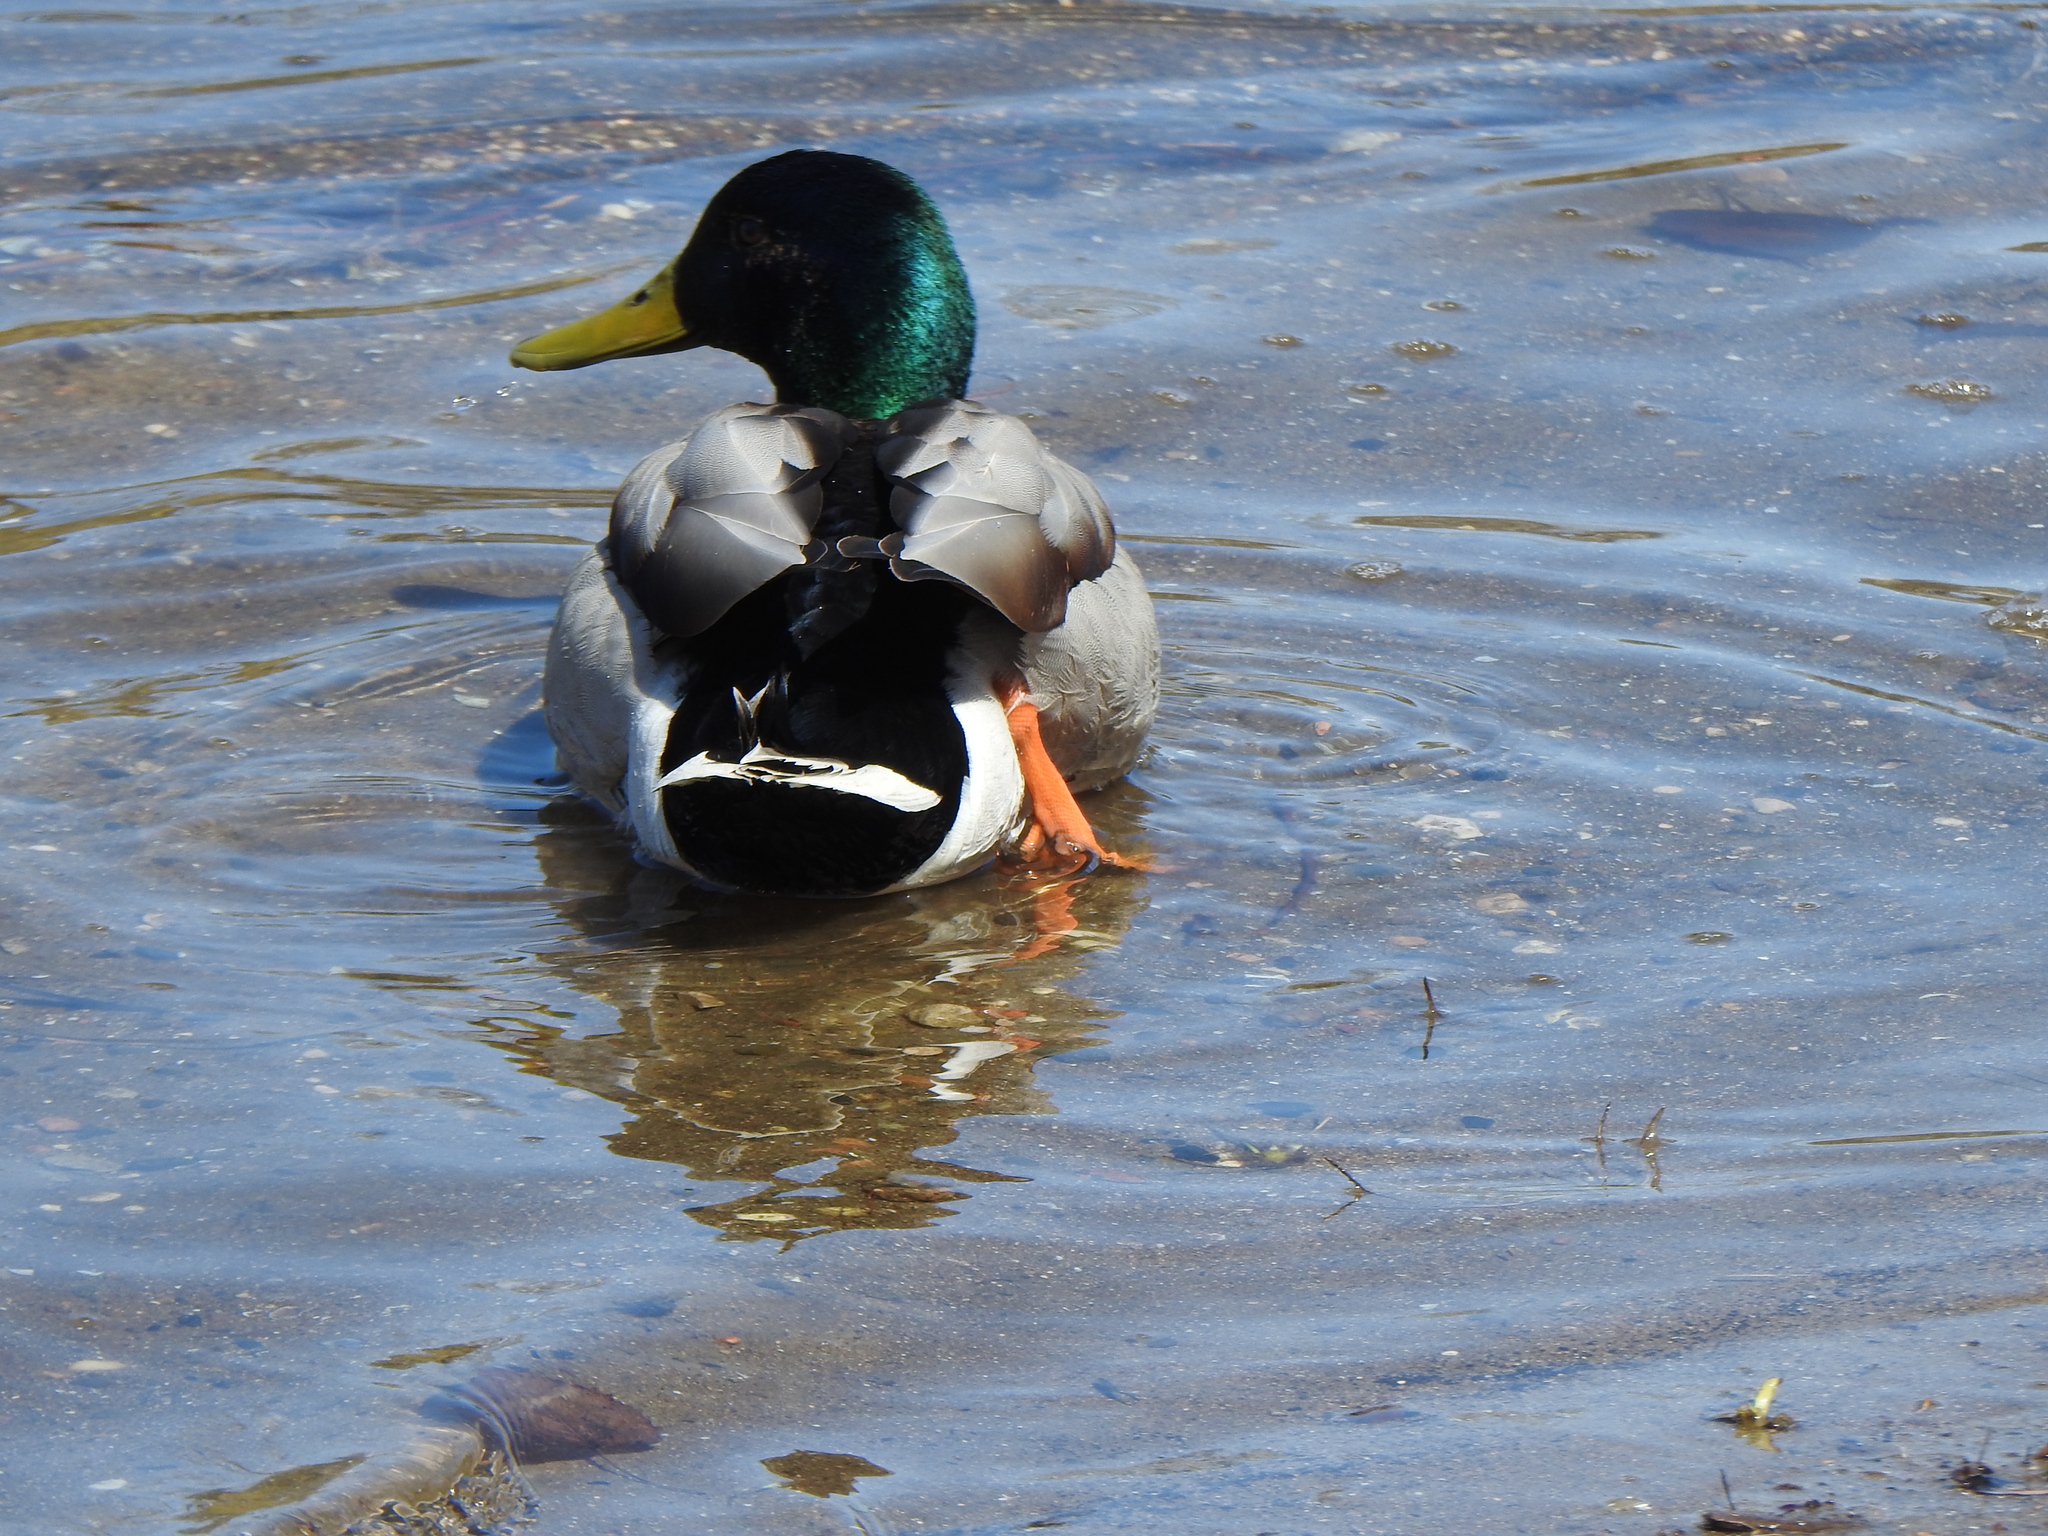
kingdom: Animalia
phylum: Chordata
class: Aves
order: Anseriformes
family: Anatidae
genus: Anas
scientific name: Anas platyrhynchos
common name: Mallard
